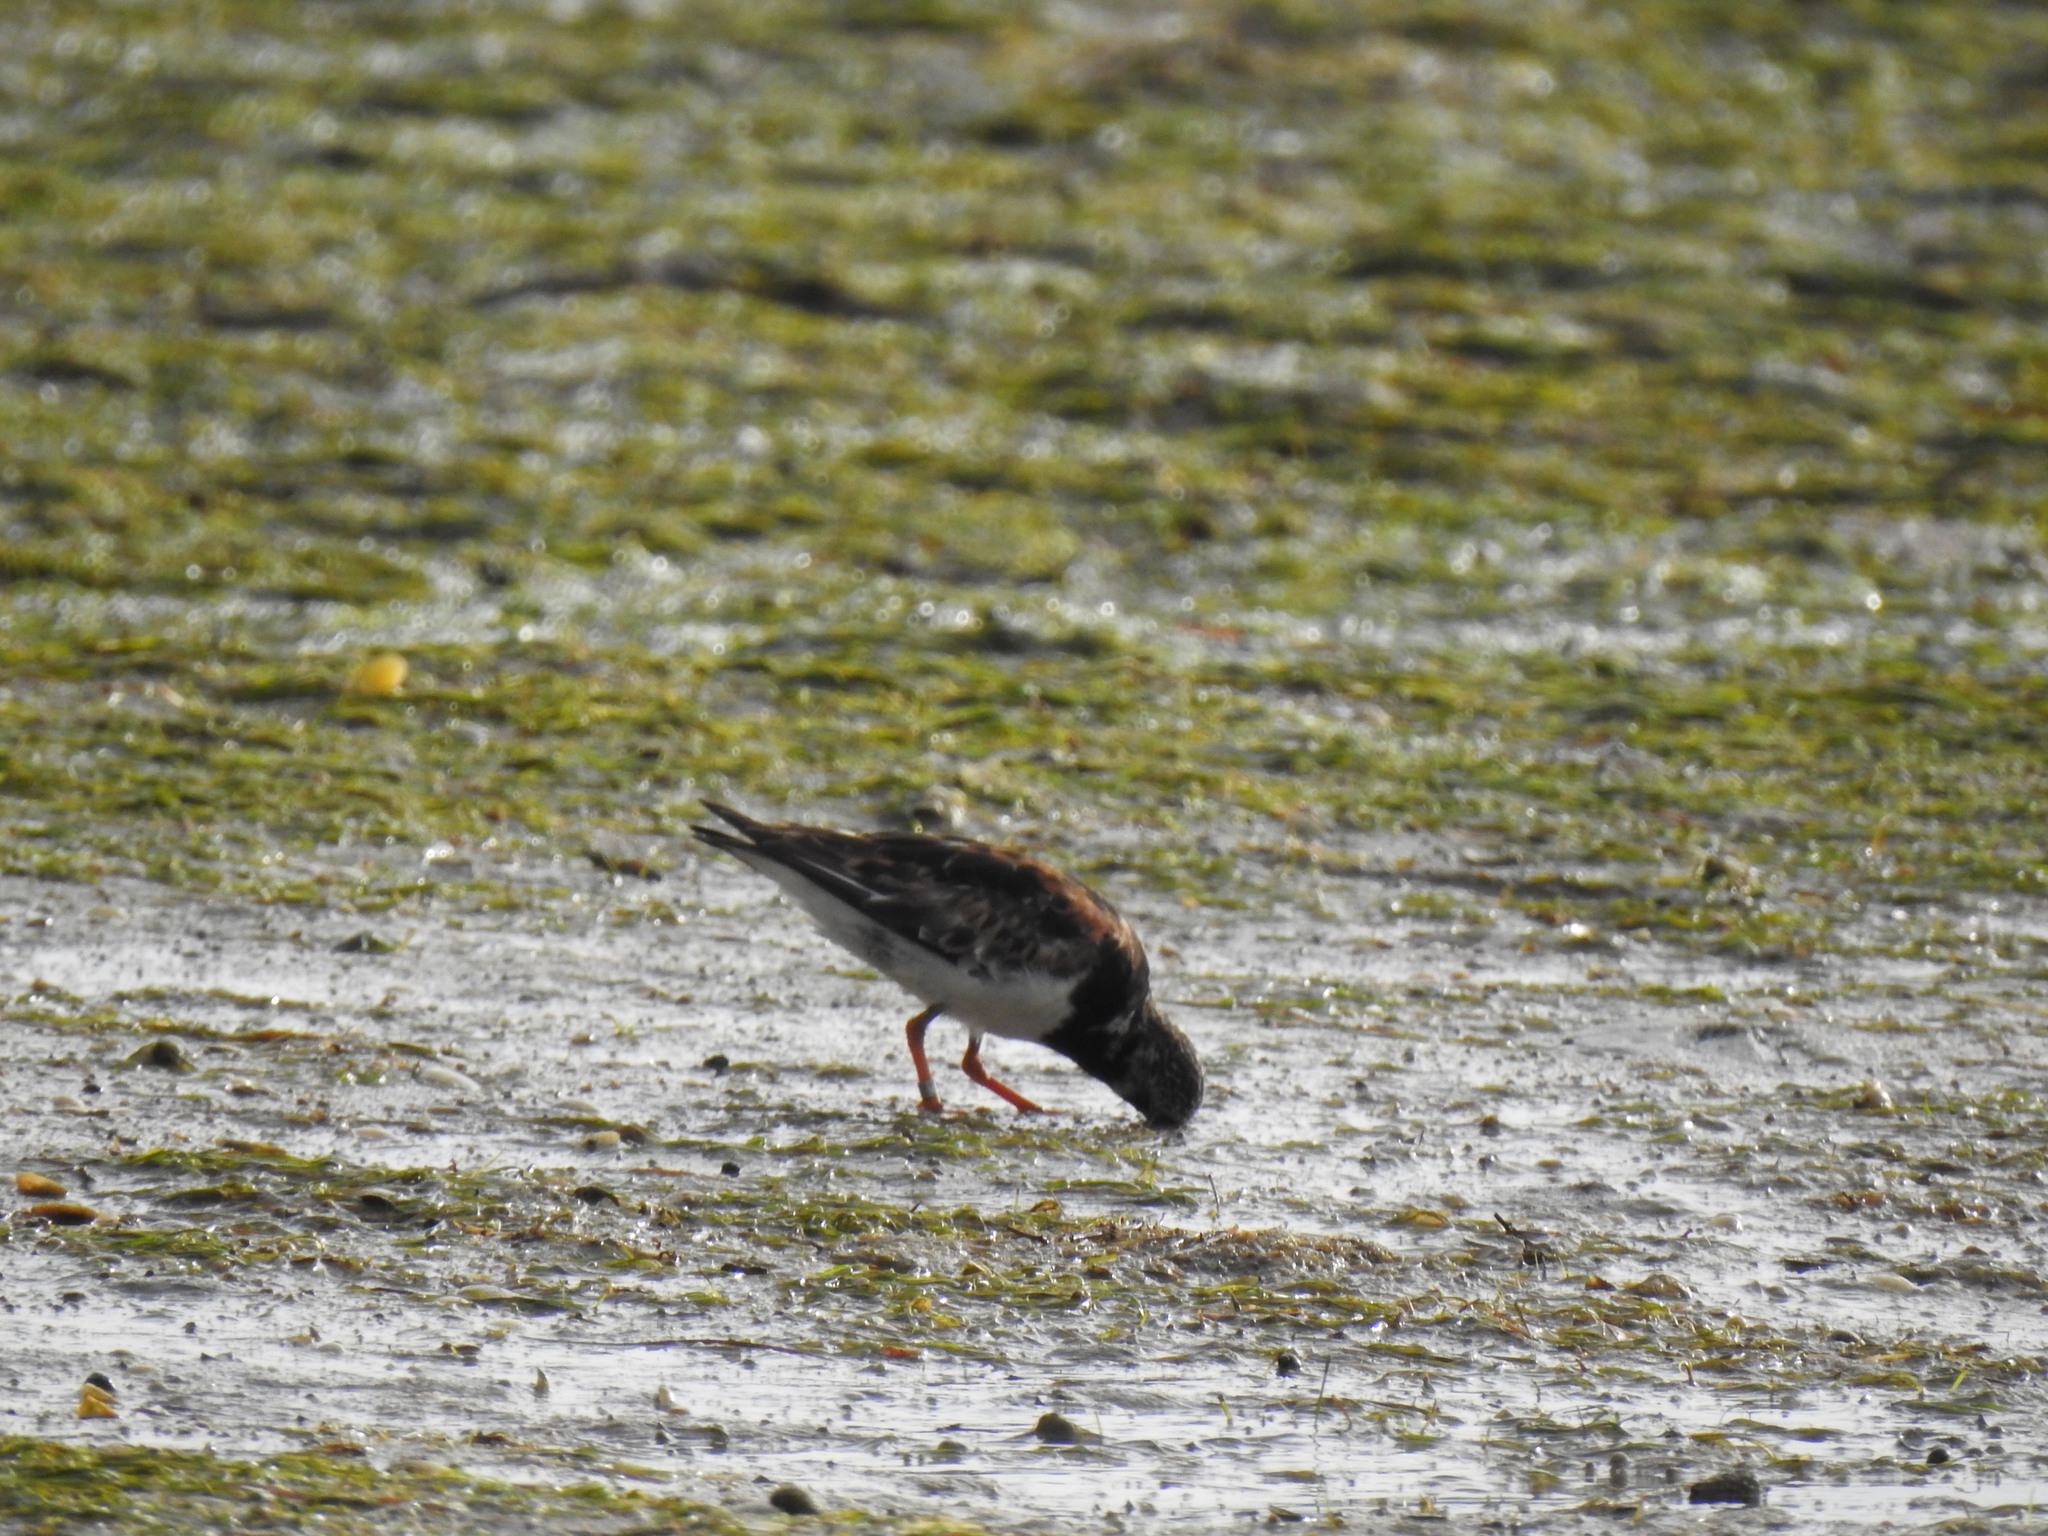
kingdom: Animalia
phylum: Chordata
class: Aves
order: Charadriiformes
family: Scolopacidae
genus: Arenaria
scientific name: Arenaria interpres
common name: Ruddy turnstone
